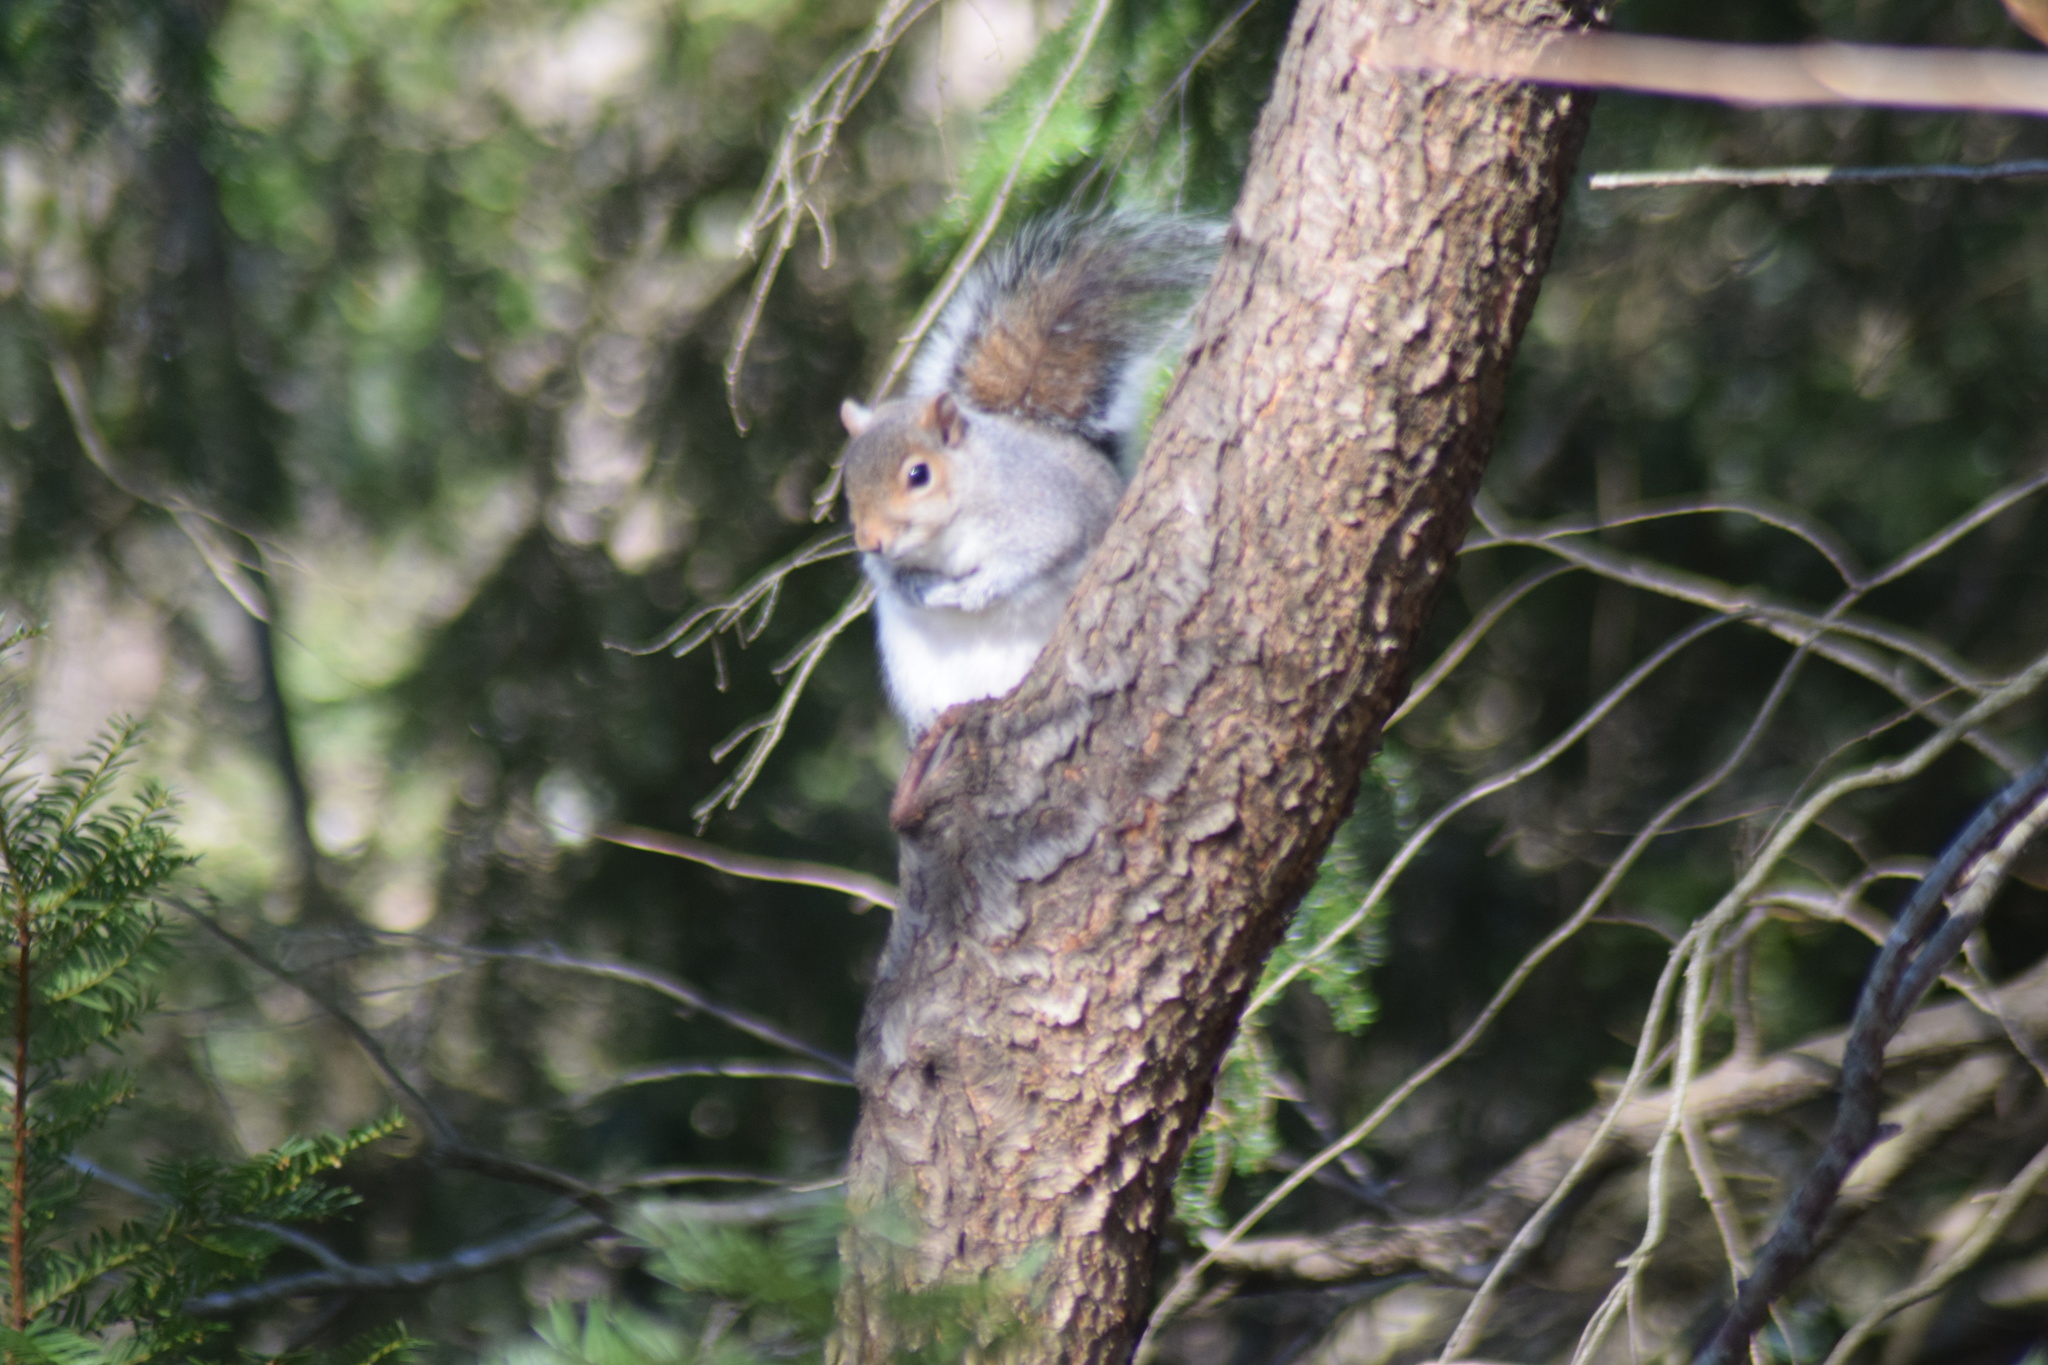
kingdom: Animalia
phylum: Chordata
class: Mammalia
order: Rodentia
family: Sciuridae
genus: Sciurus
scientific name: Sciurus carolinensis
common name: Eastern gray squirrel
